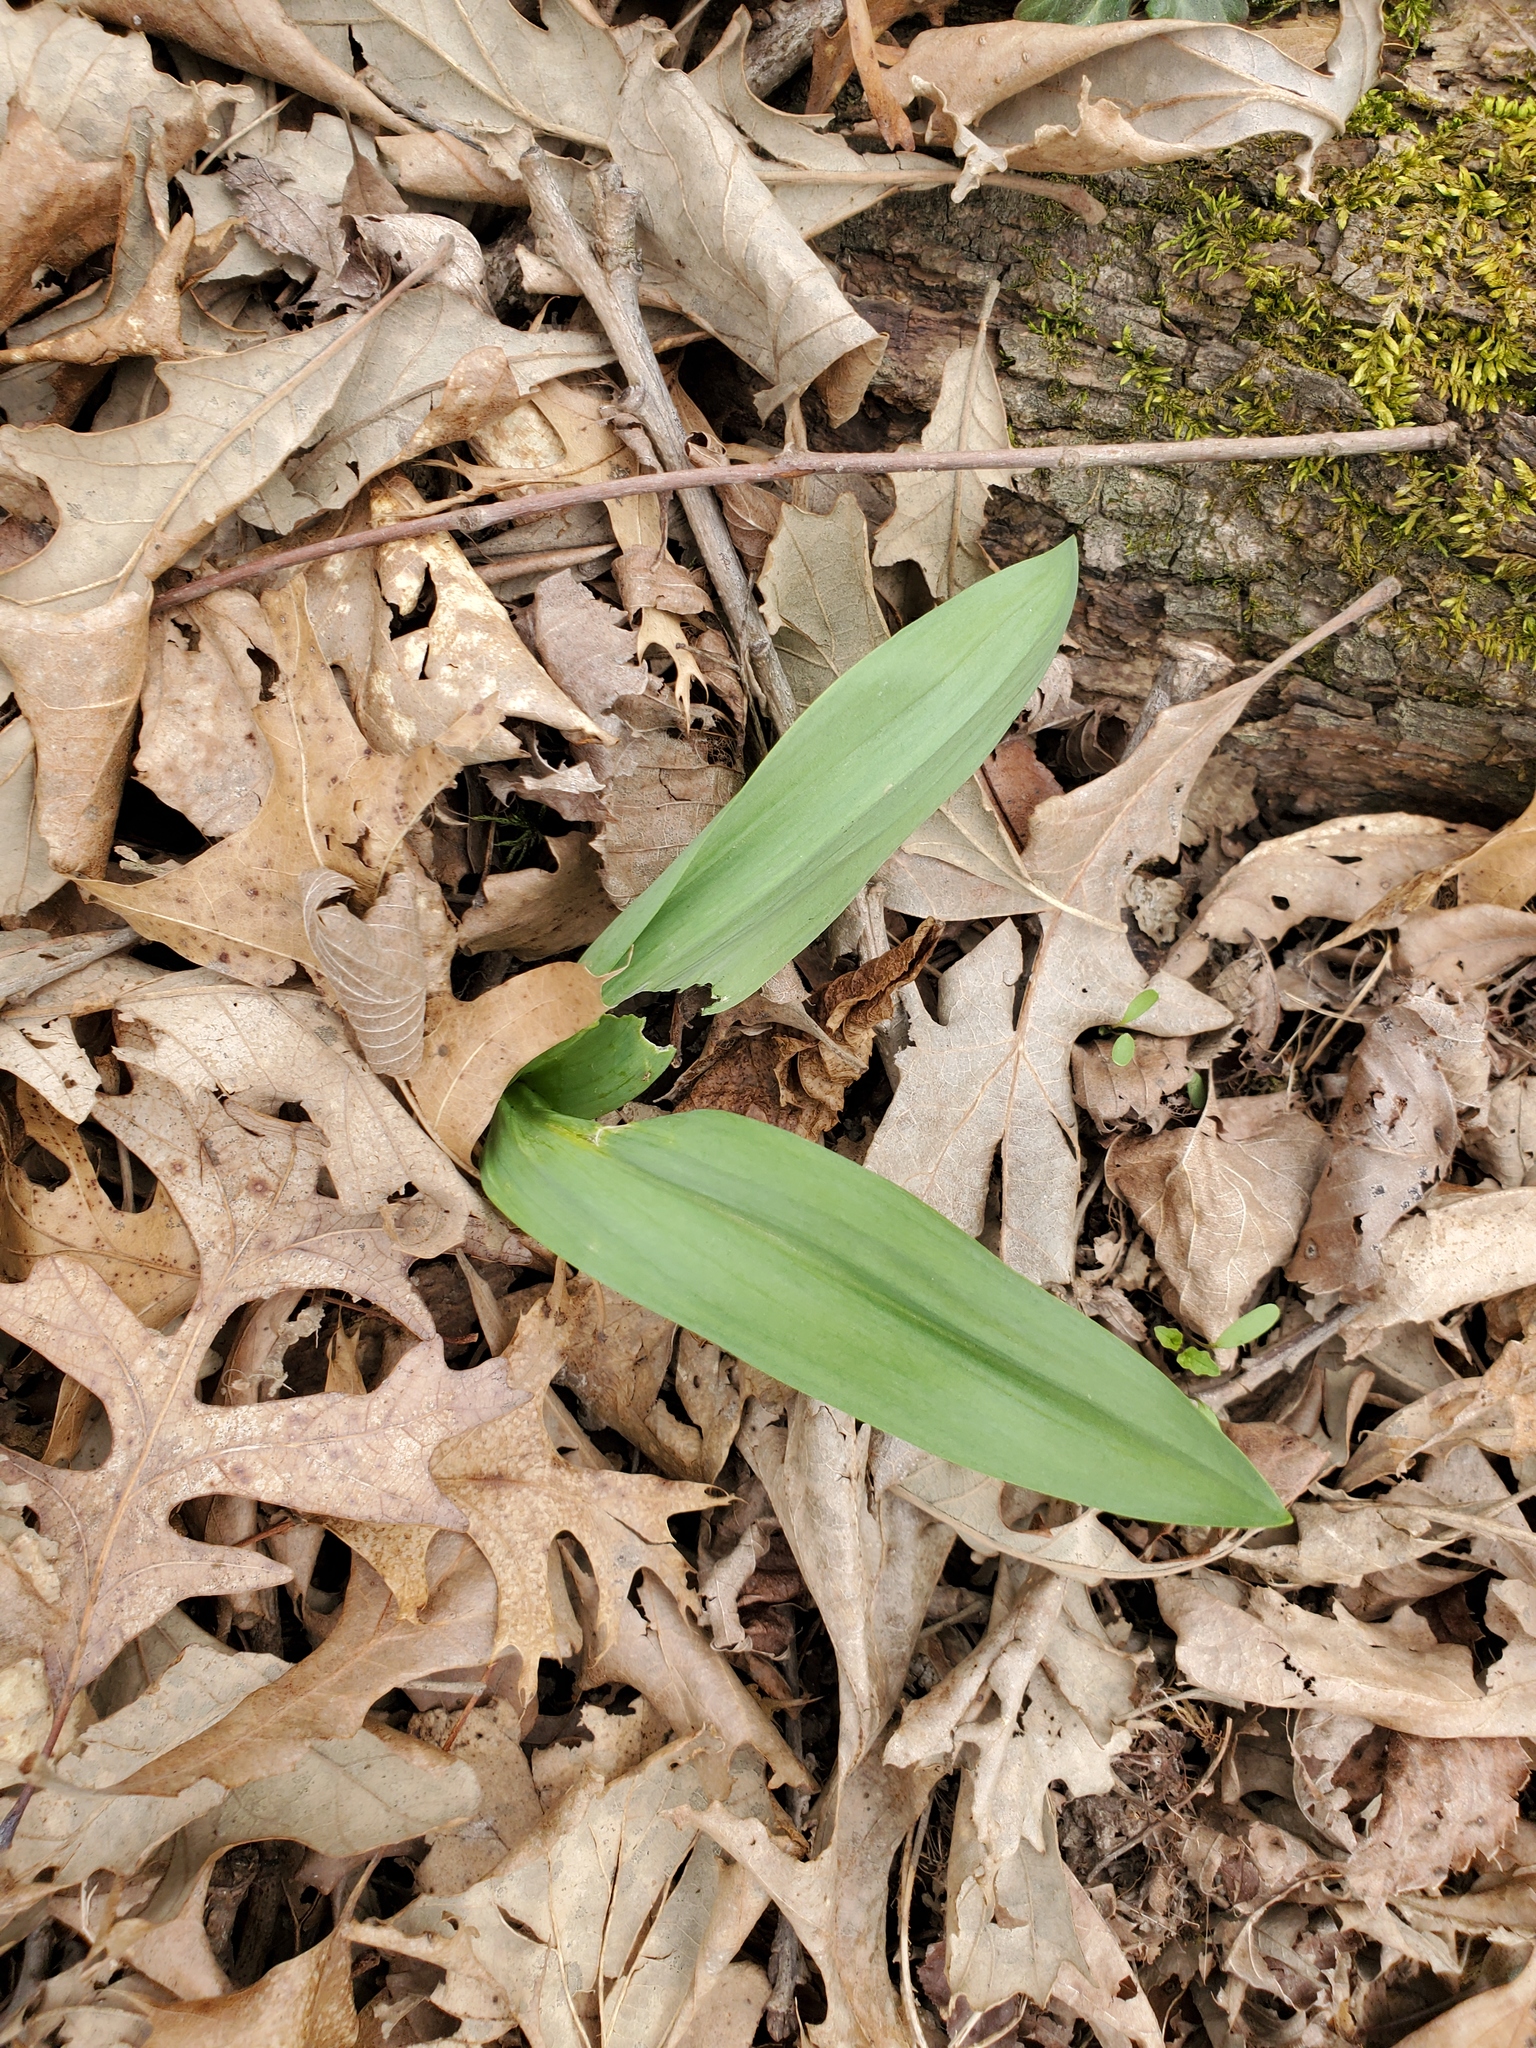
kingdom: Plantae
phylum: Tracheophyta
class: Liliopsida
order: Asparagales
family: Amaryllidaceae
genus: Allium
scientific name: Allium tricoccum
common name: Ramp
